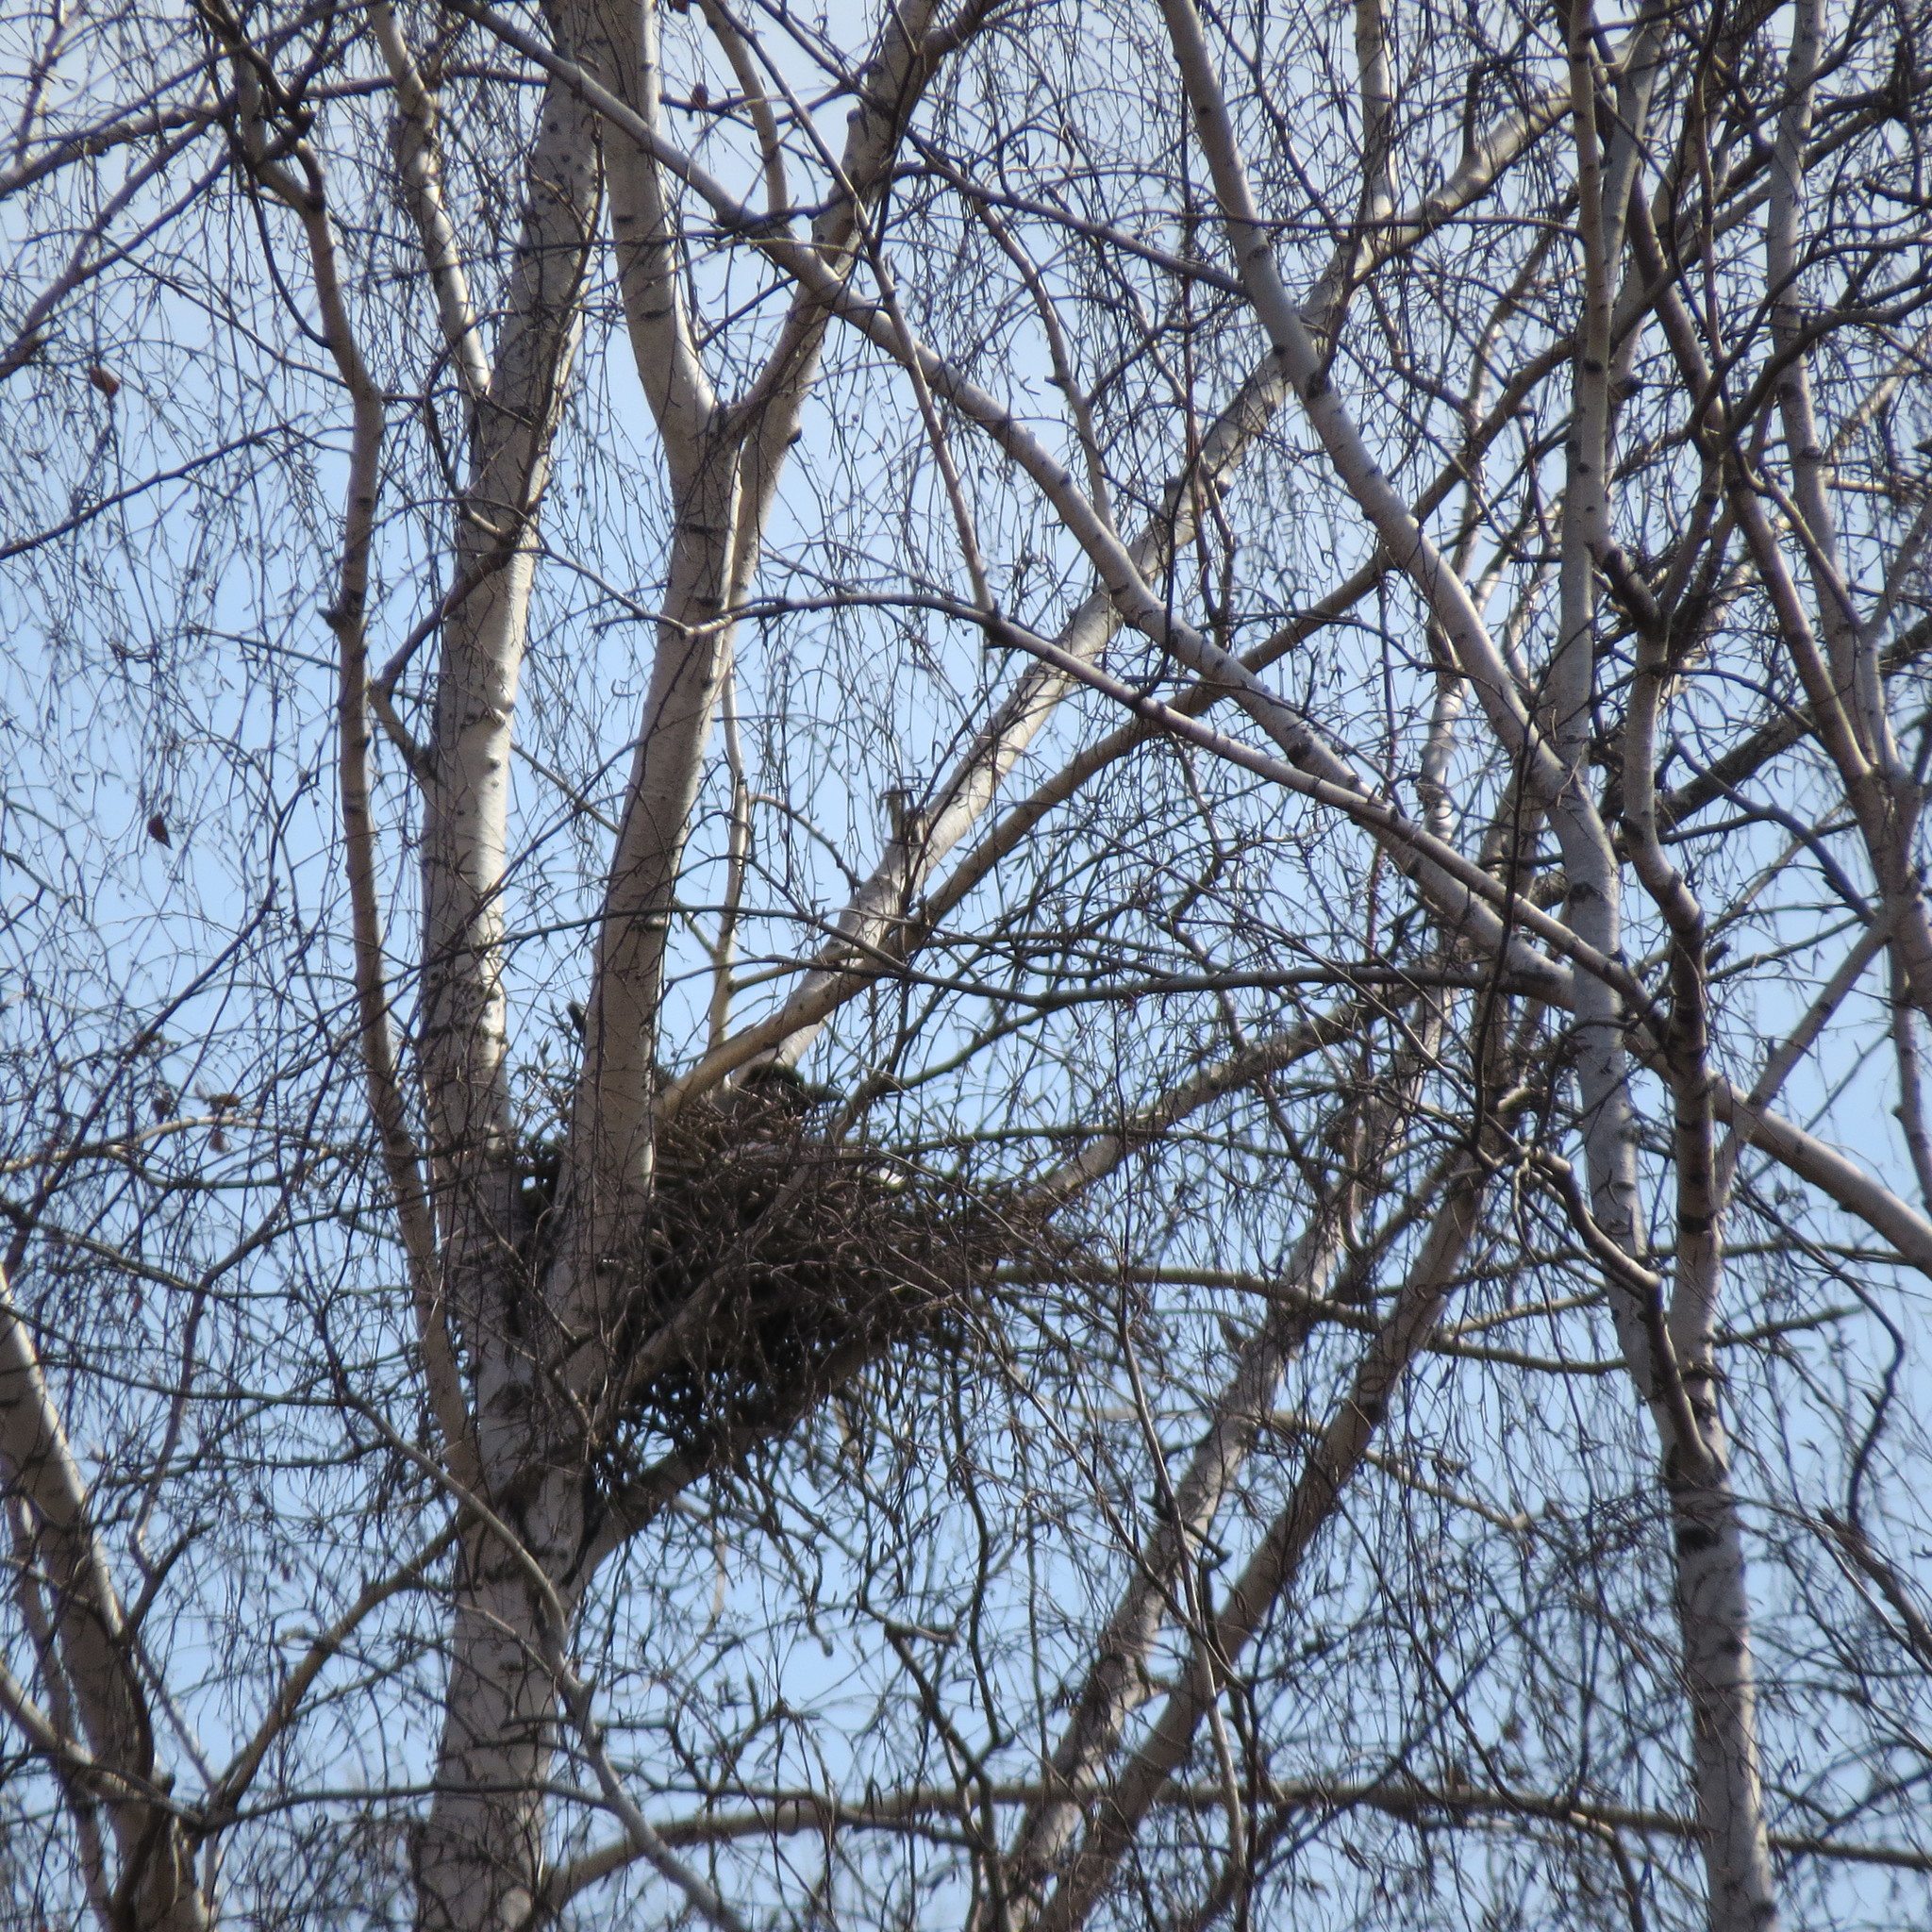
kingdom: Animalia
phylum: Chordata
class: Aves
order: Passeriformes
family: Corvidae
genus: Corvus
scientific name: Corvus cornix
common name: Hooded crow
